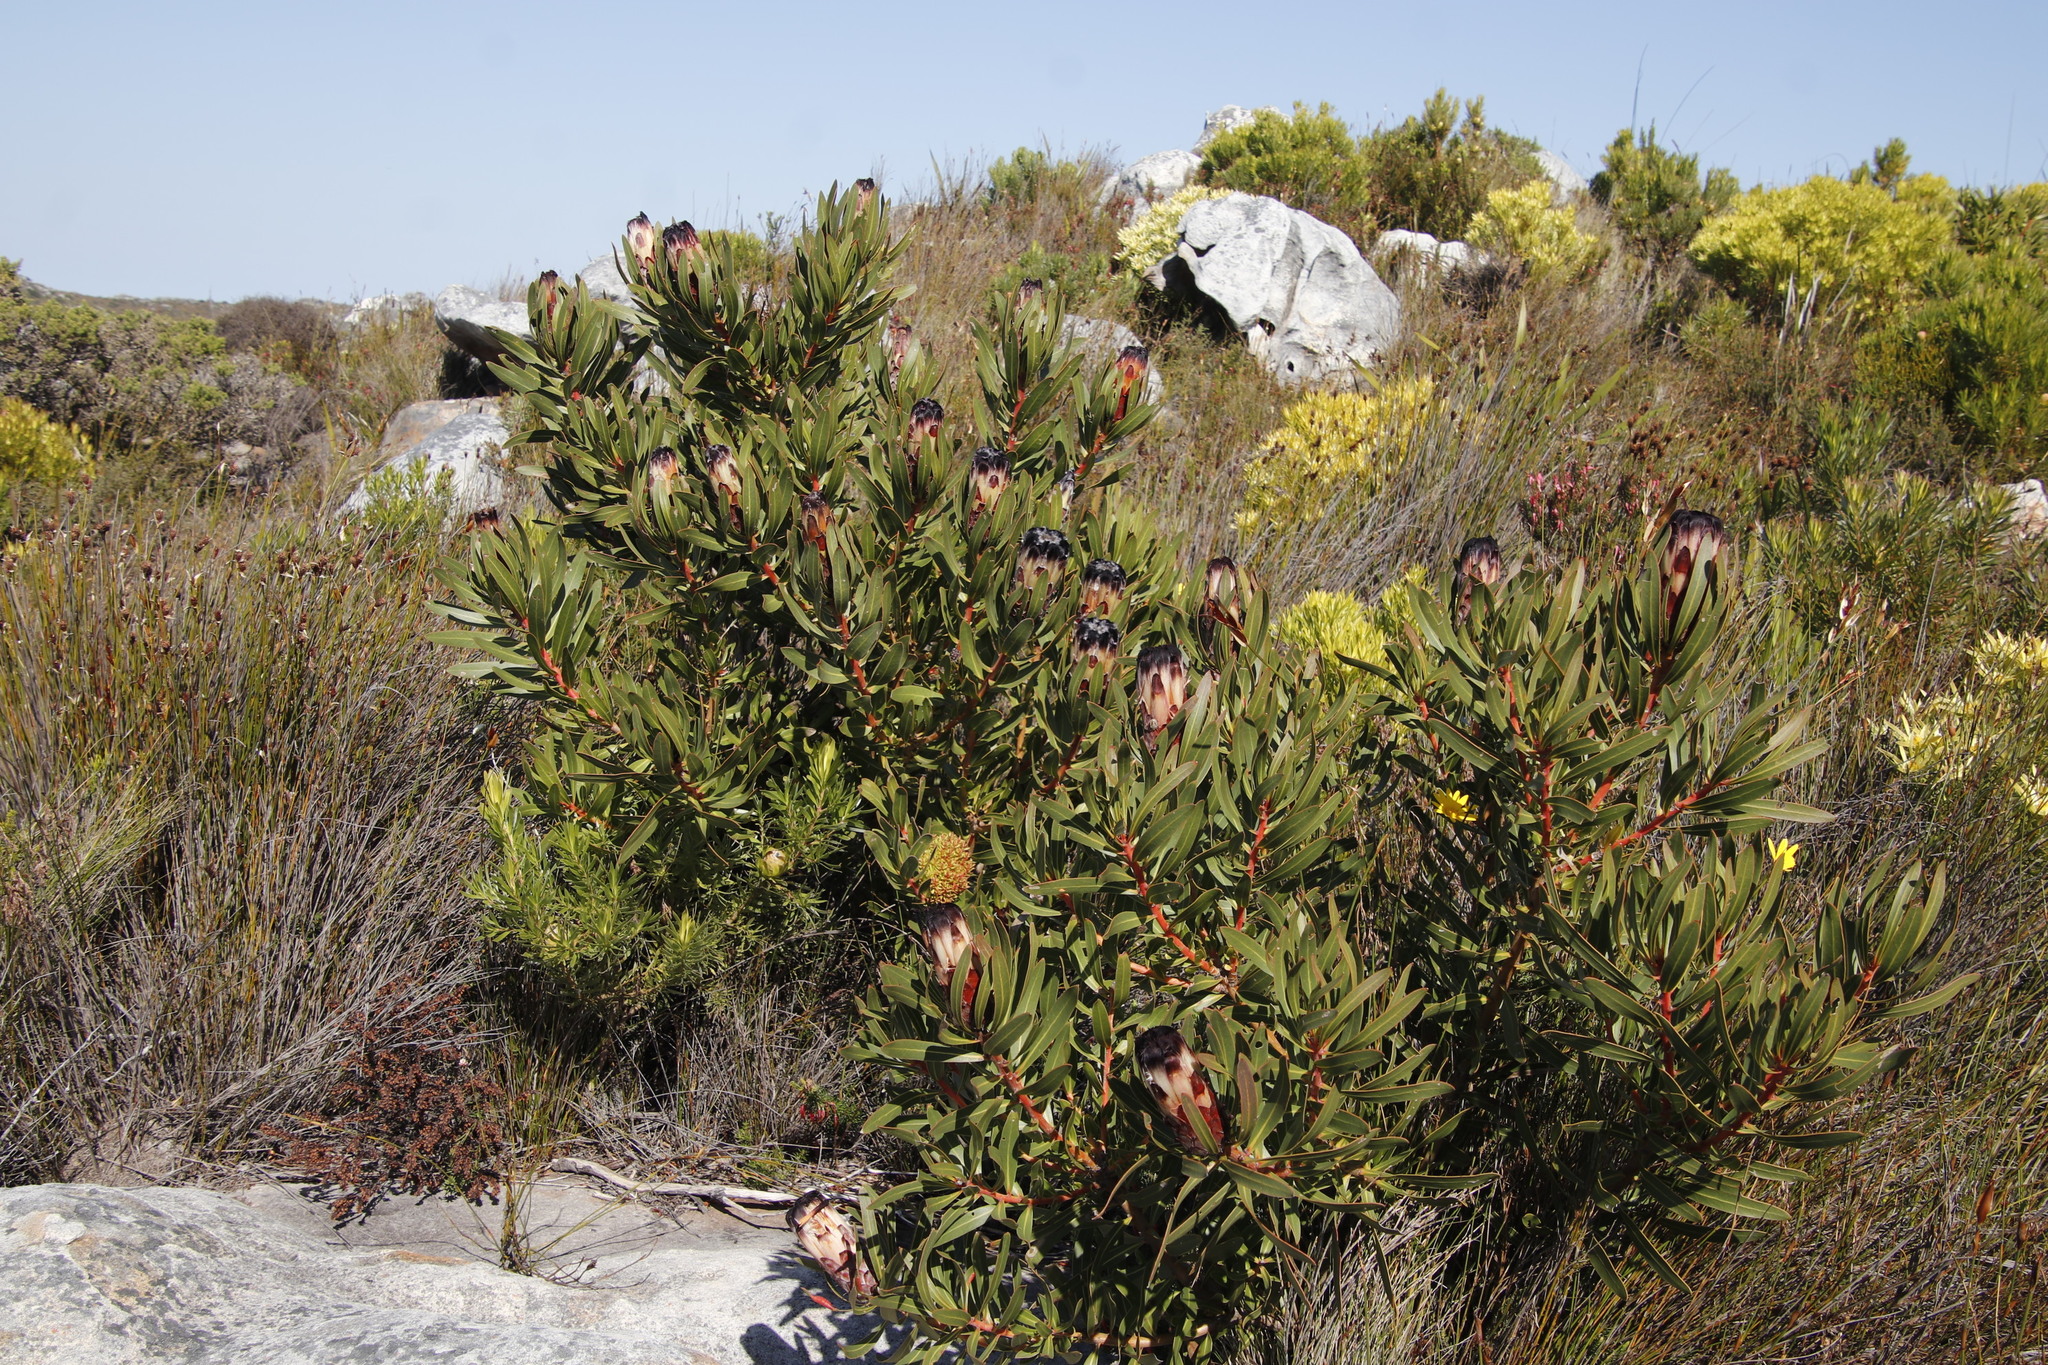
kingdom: Plantae
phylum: Tracheophyta
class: Magnoliopsida
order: Proteales
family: Proteaceae
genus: Protea
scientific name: Protea lepidocarpodendron
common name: Black-bearded protea
